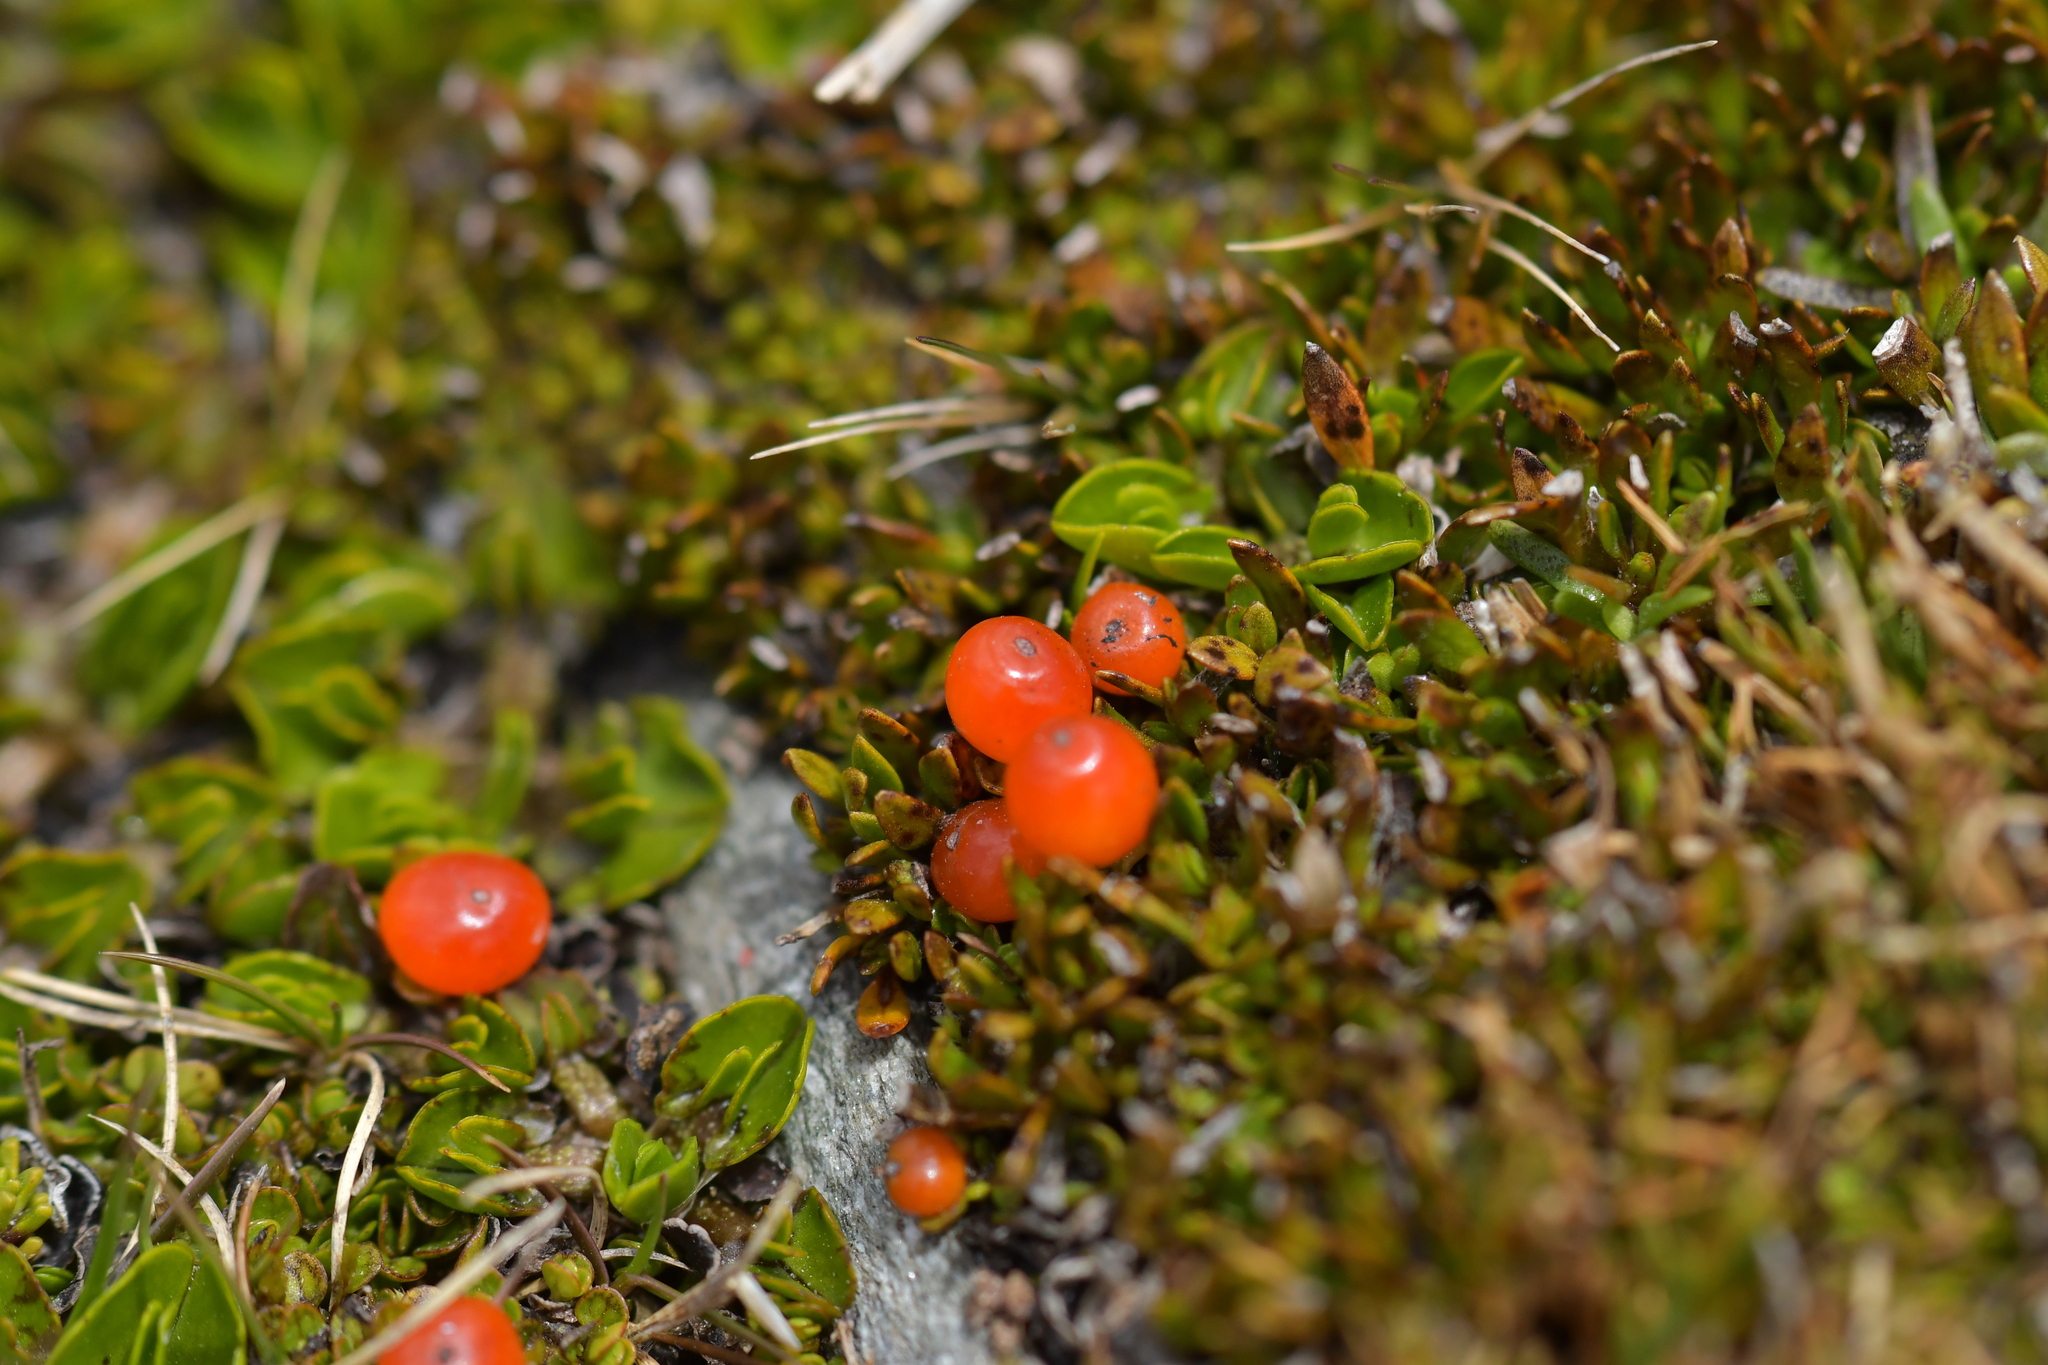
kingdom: Plantae
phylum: Tracheophyta
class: Magnoliopsida
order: Gentianales
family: Rubiaceae
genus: Coprosma
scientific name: Coprosma perpusilla
